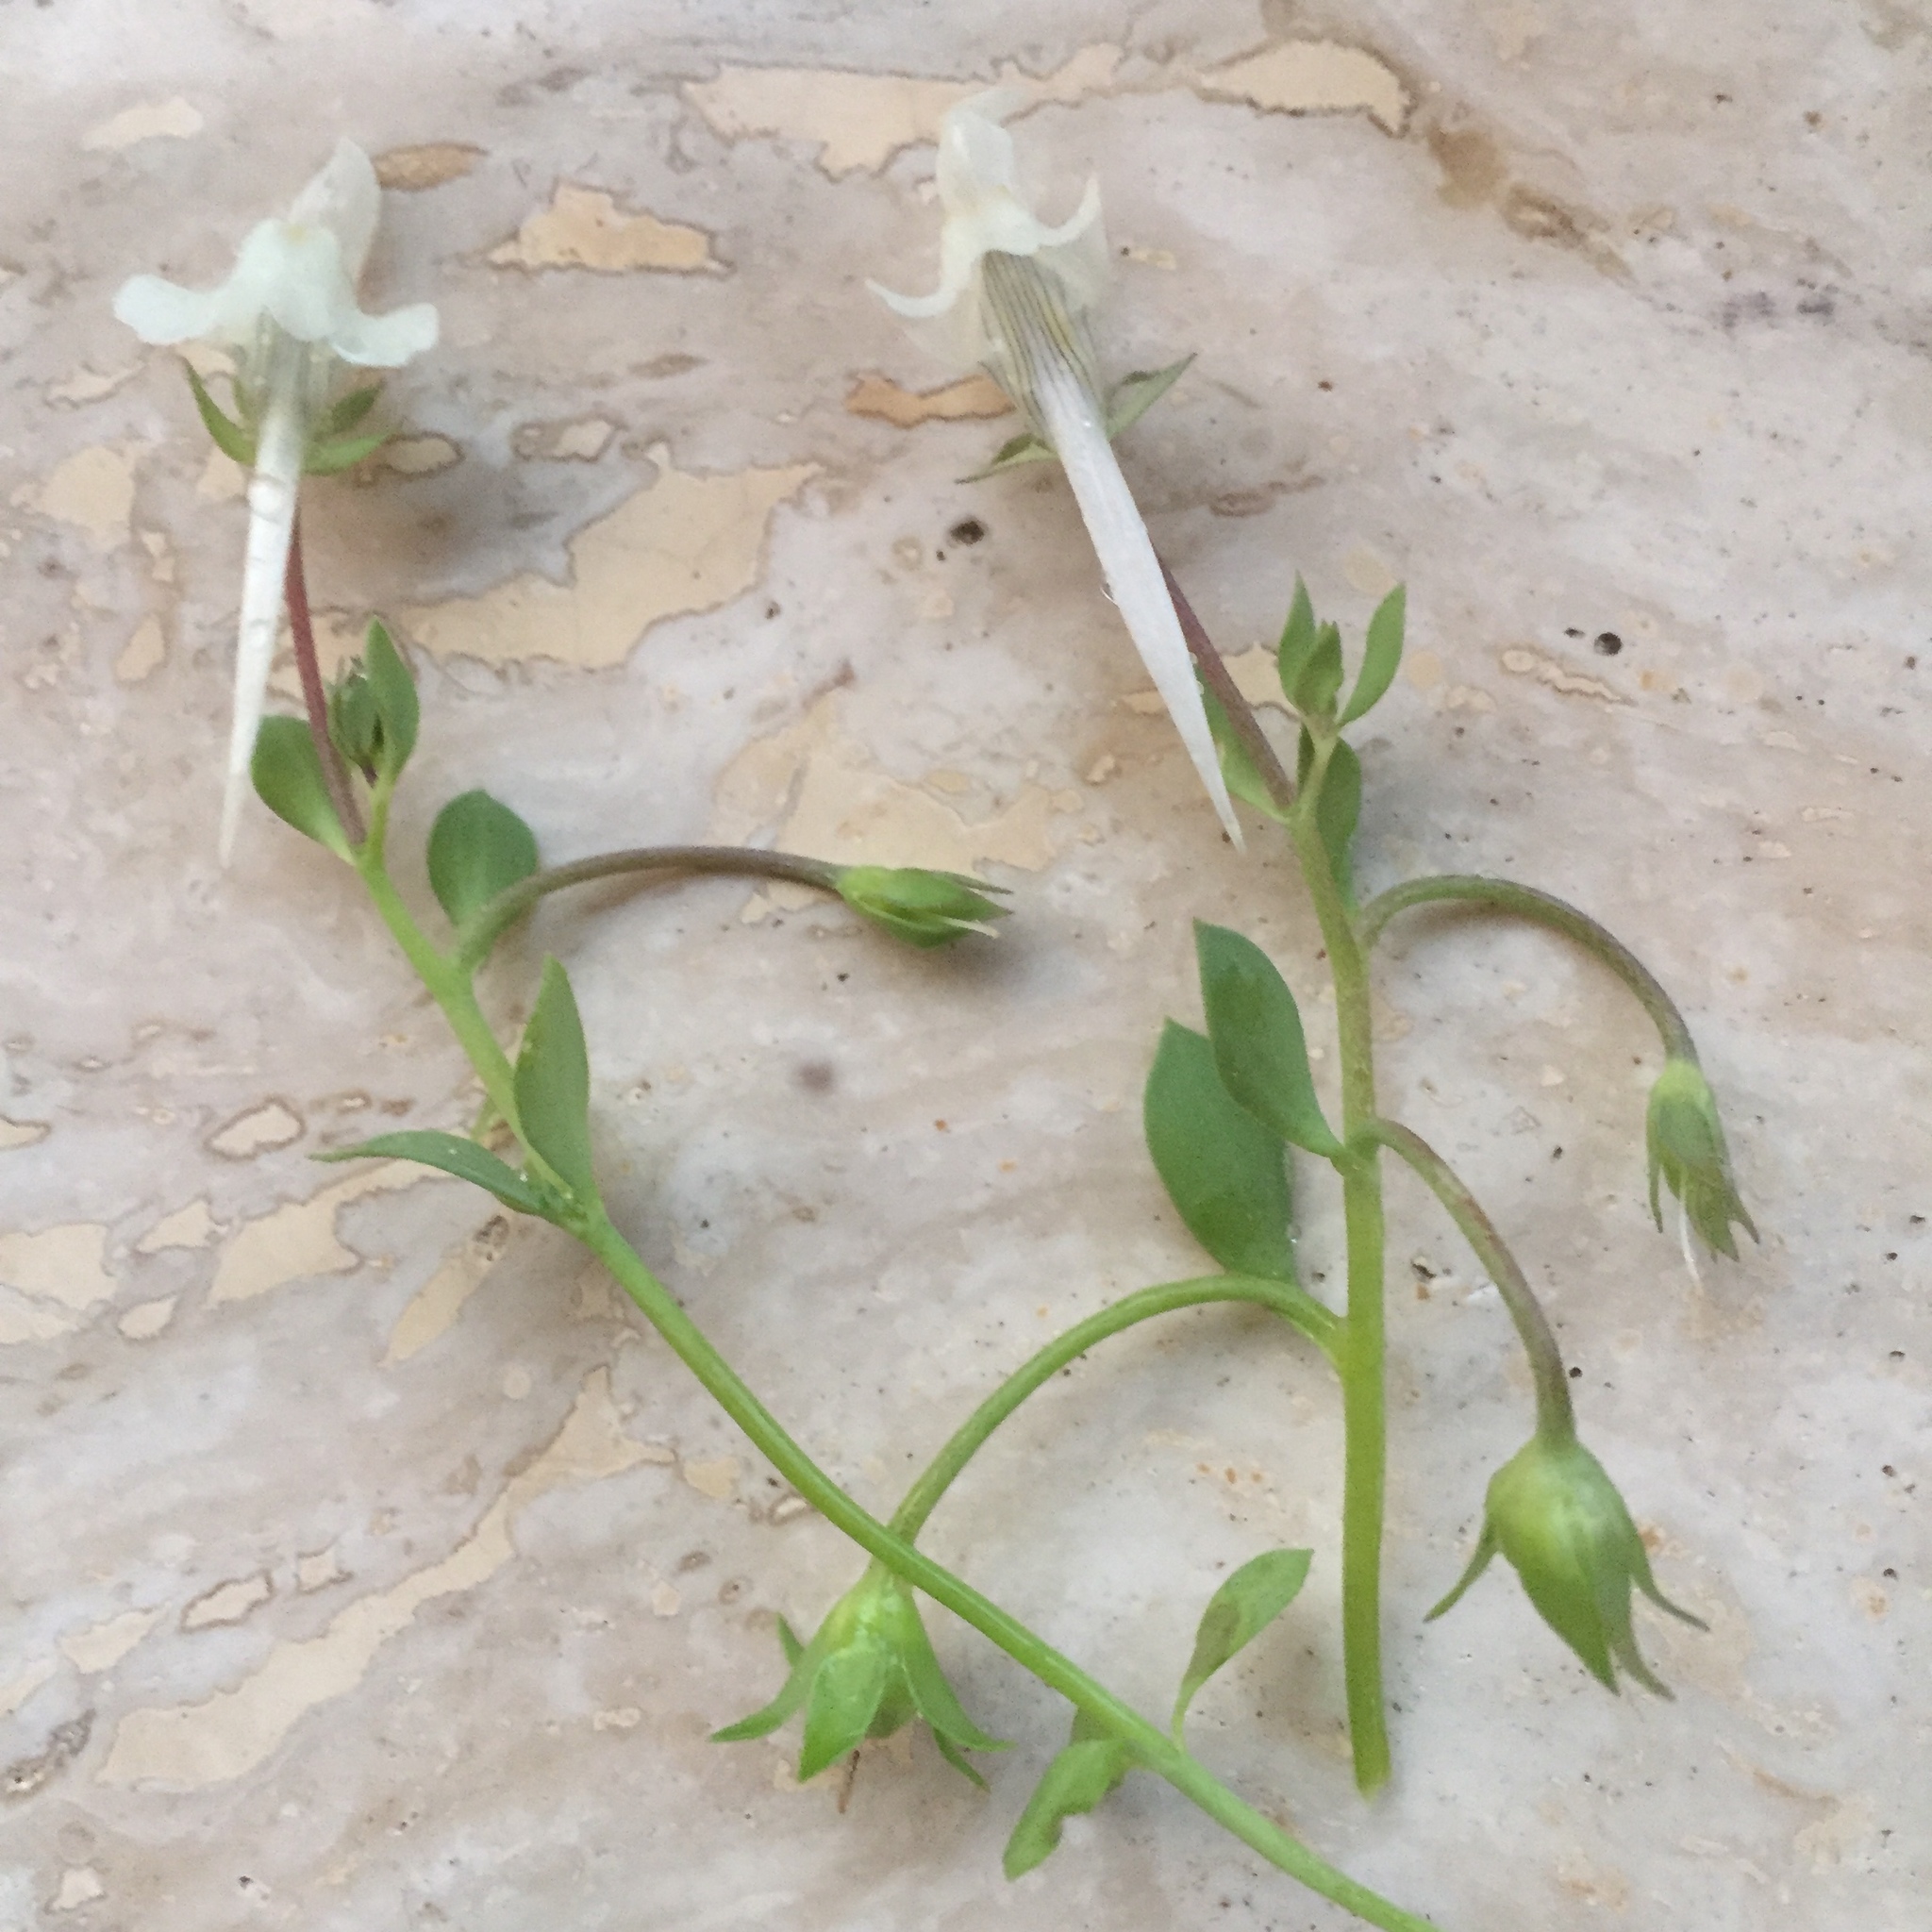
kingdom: Plantae
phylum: Tracheophyta
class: Magnoliopsida
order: Lamiales
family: Plantaginaceae
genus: Linaria
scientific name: Linaria reflexa
